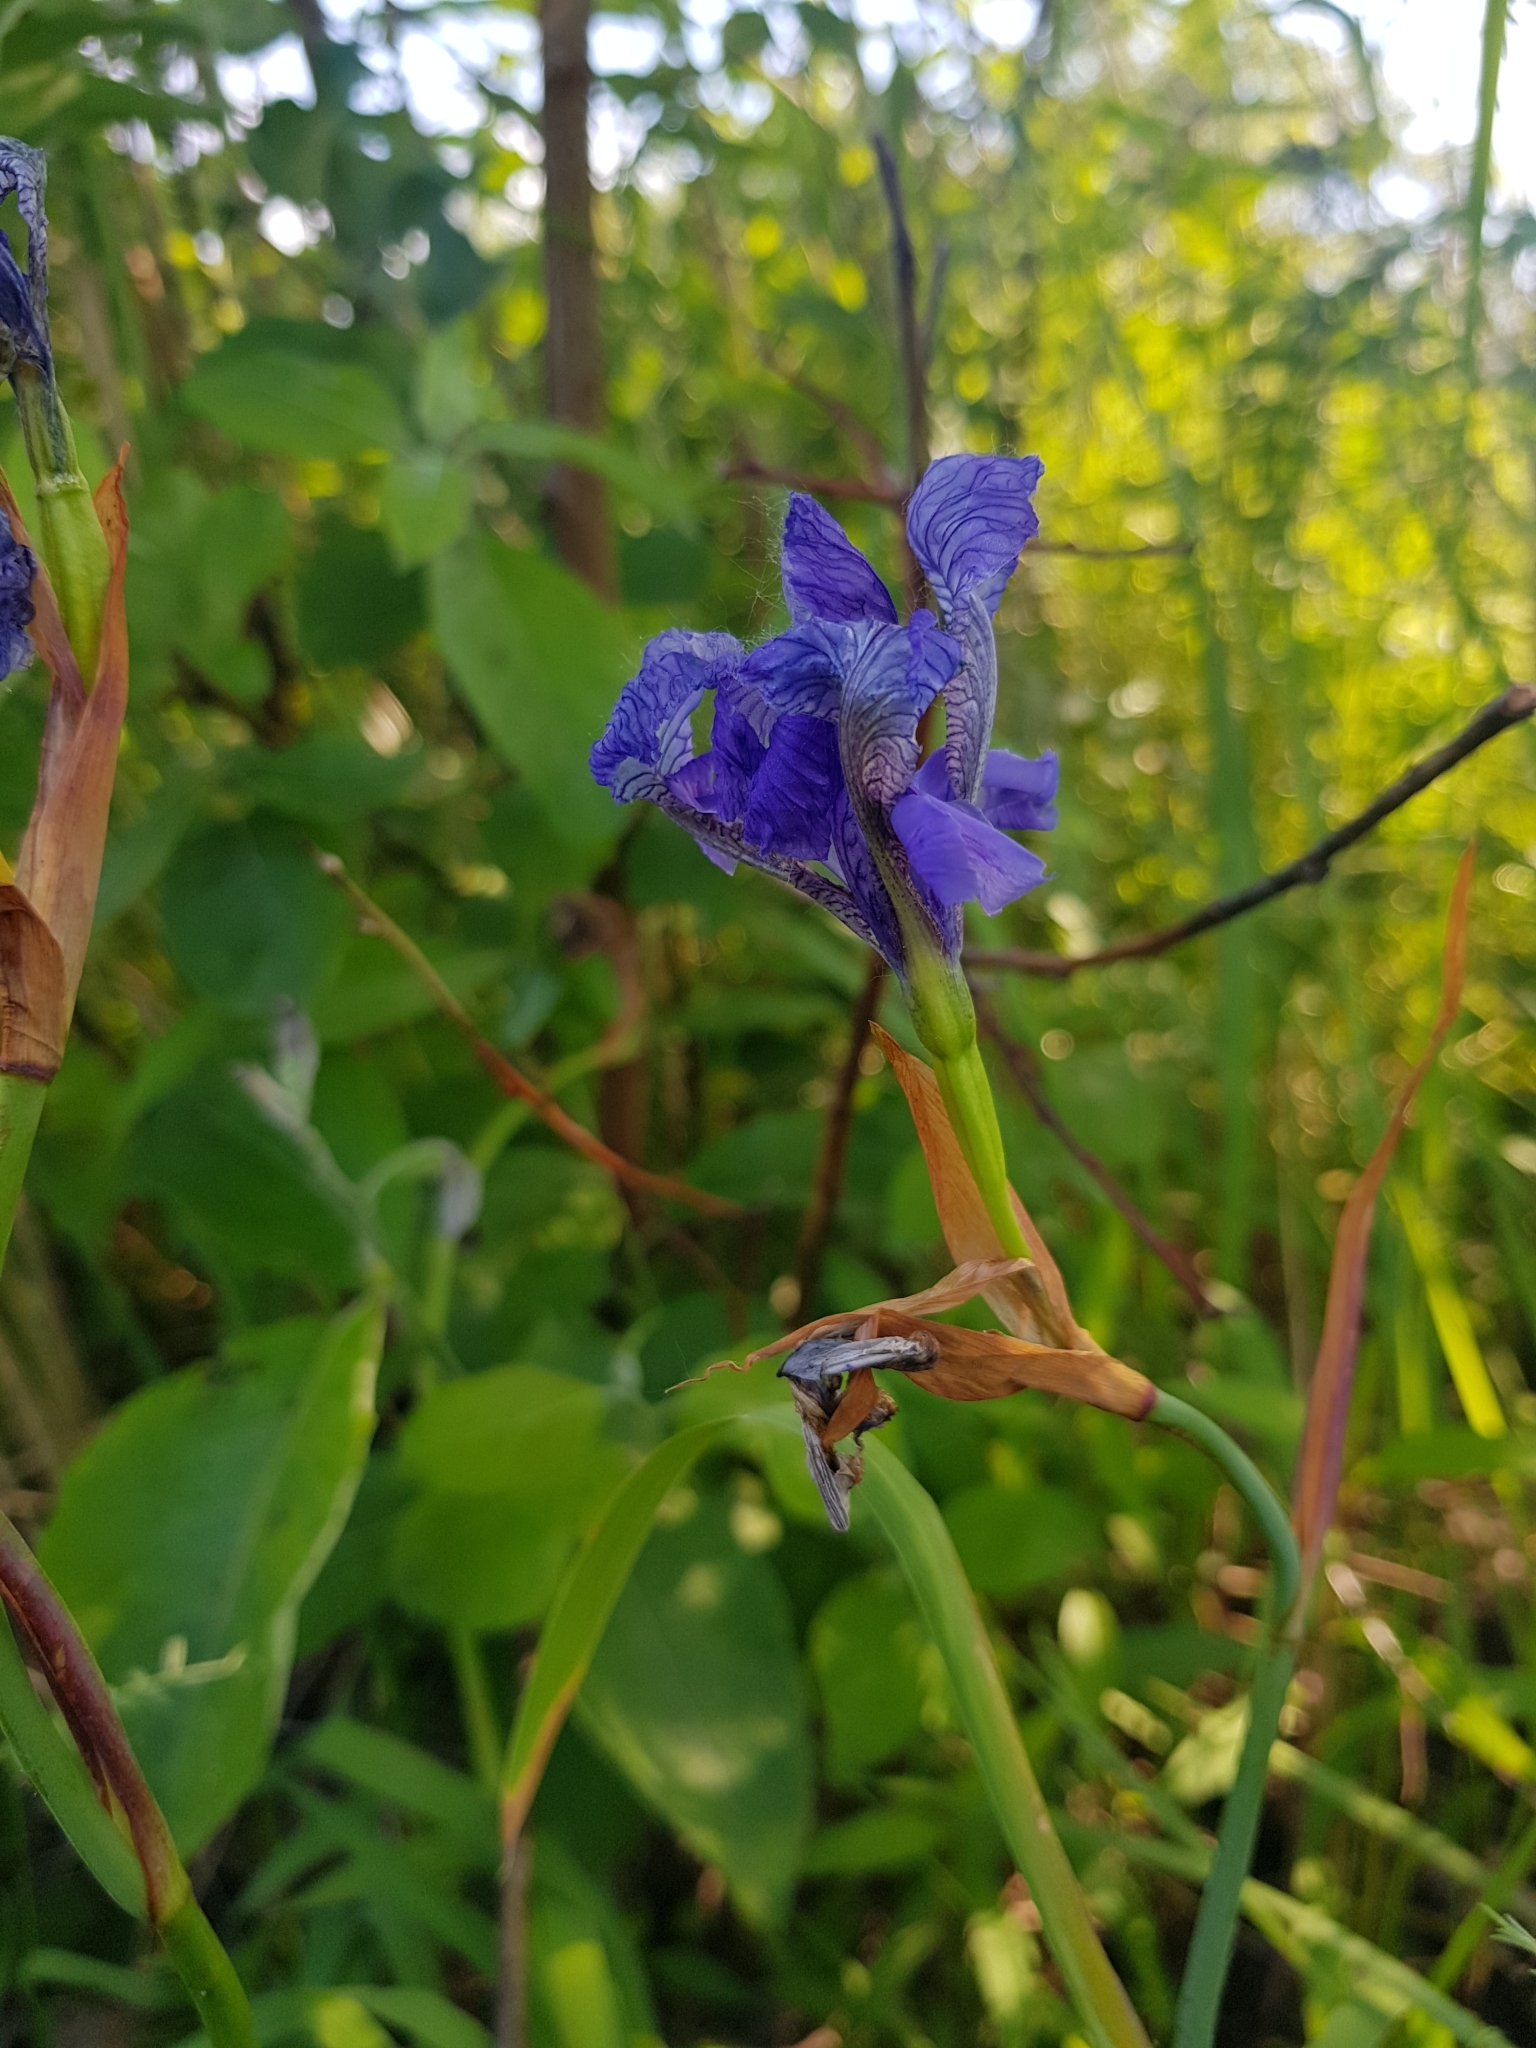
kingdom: Plantae
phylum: Tracheophyta
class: Liliopsida
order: Asparagales
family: Iridaceae
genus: Iris
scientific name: Iris sibirica
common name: Siberian iris
